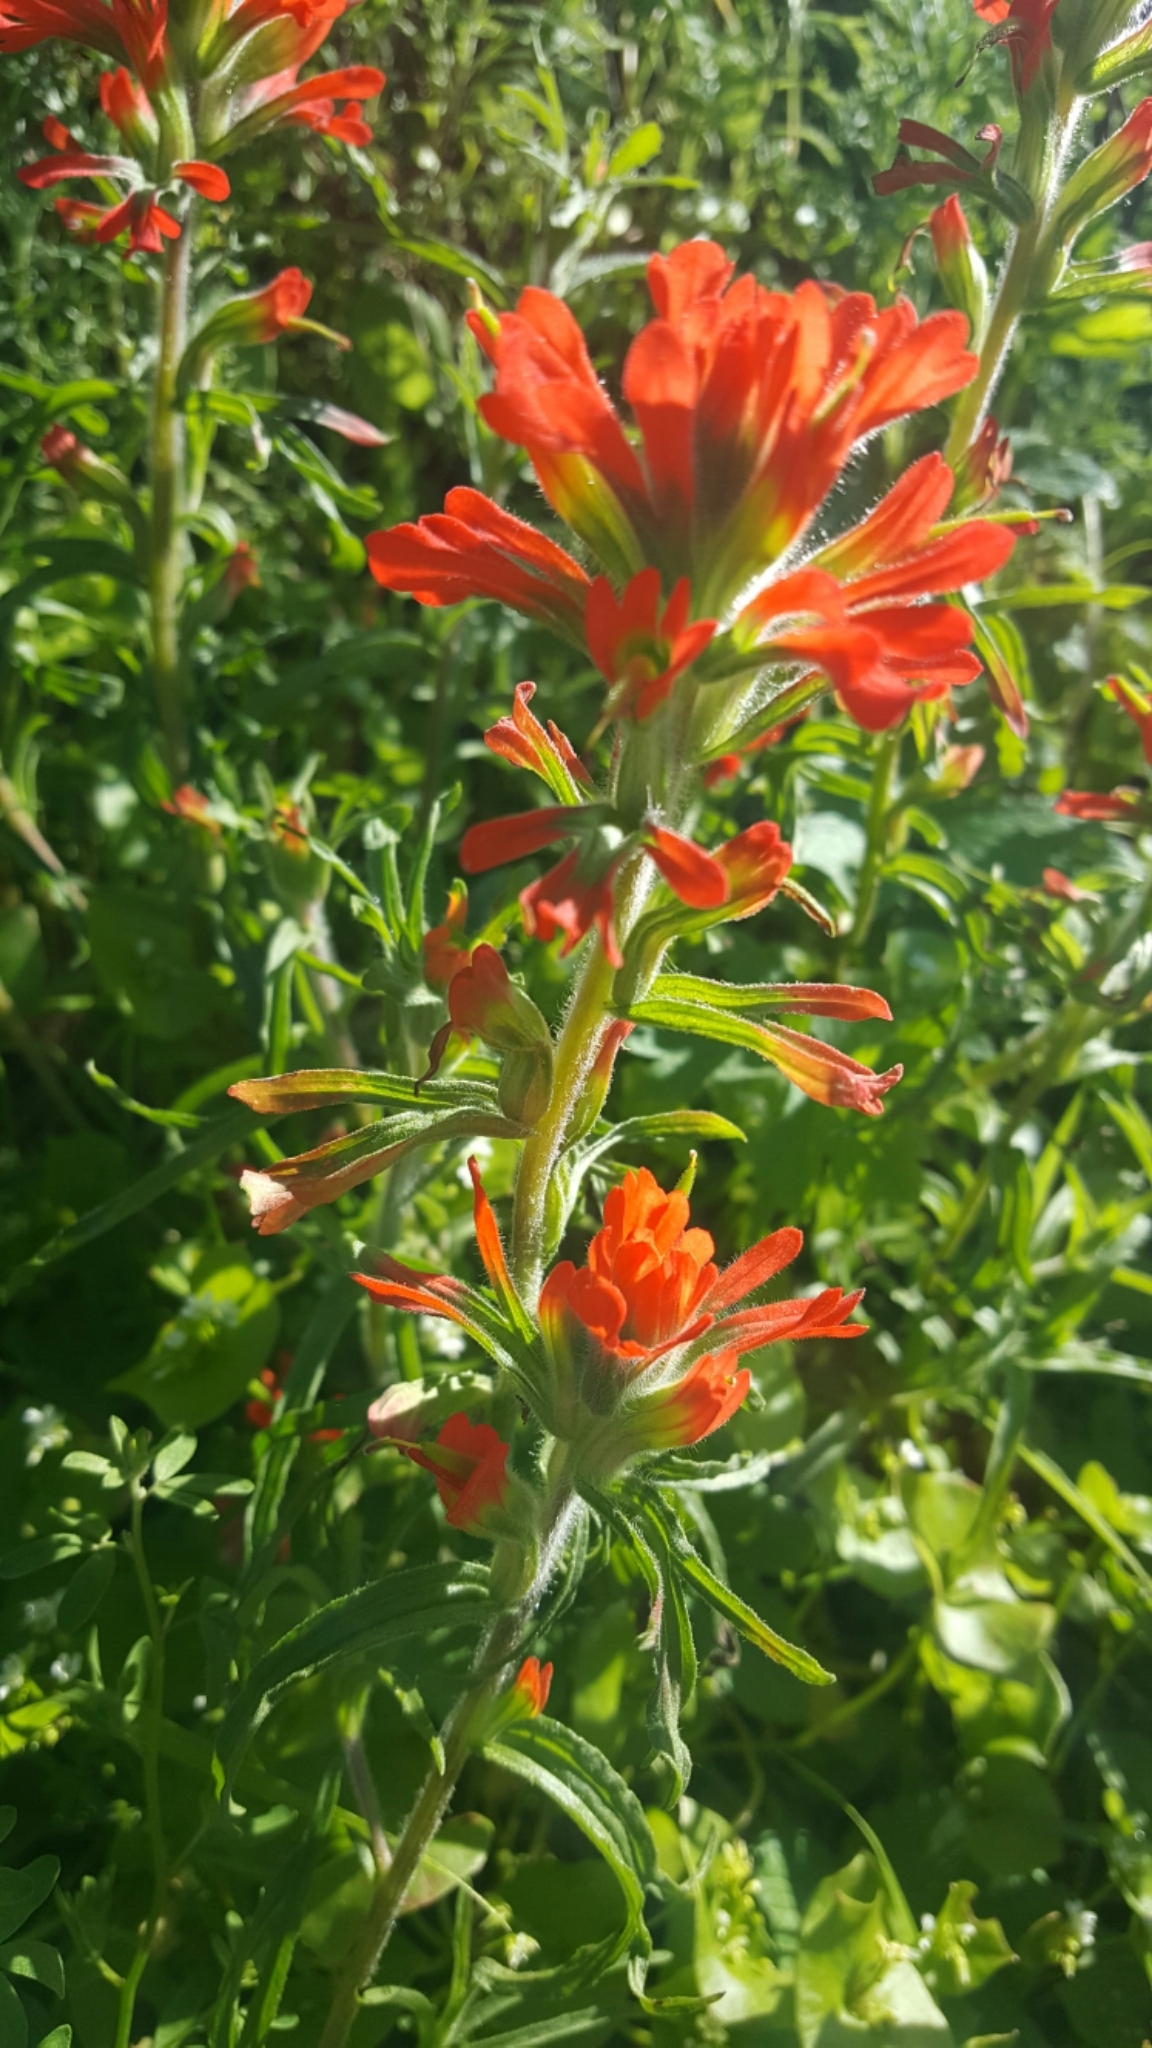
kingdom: Plantae
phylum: Tracheophyta
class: Magnoliopsida
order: Lamiales
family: Orobanchaceae
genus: Castilleja
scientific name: Castilleja affinis
